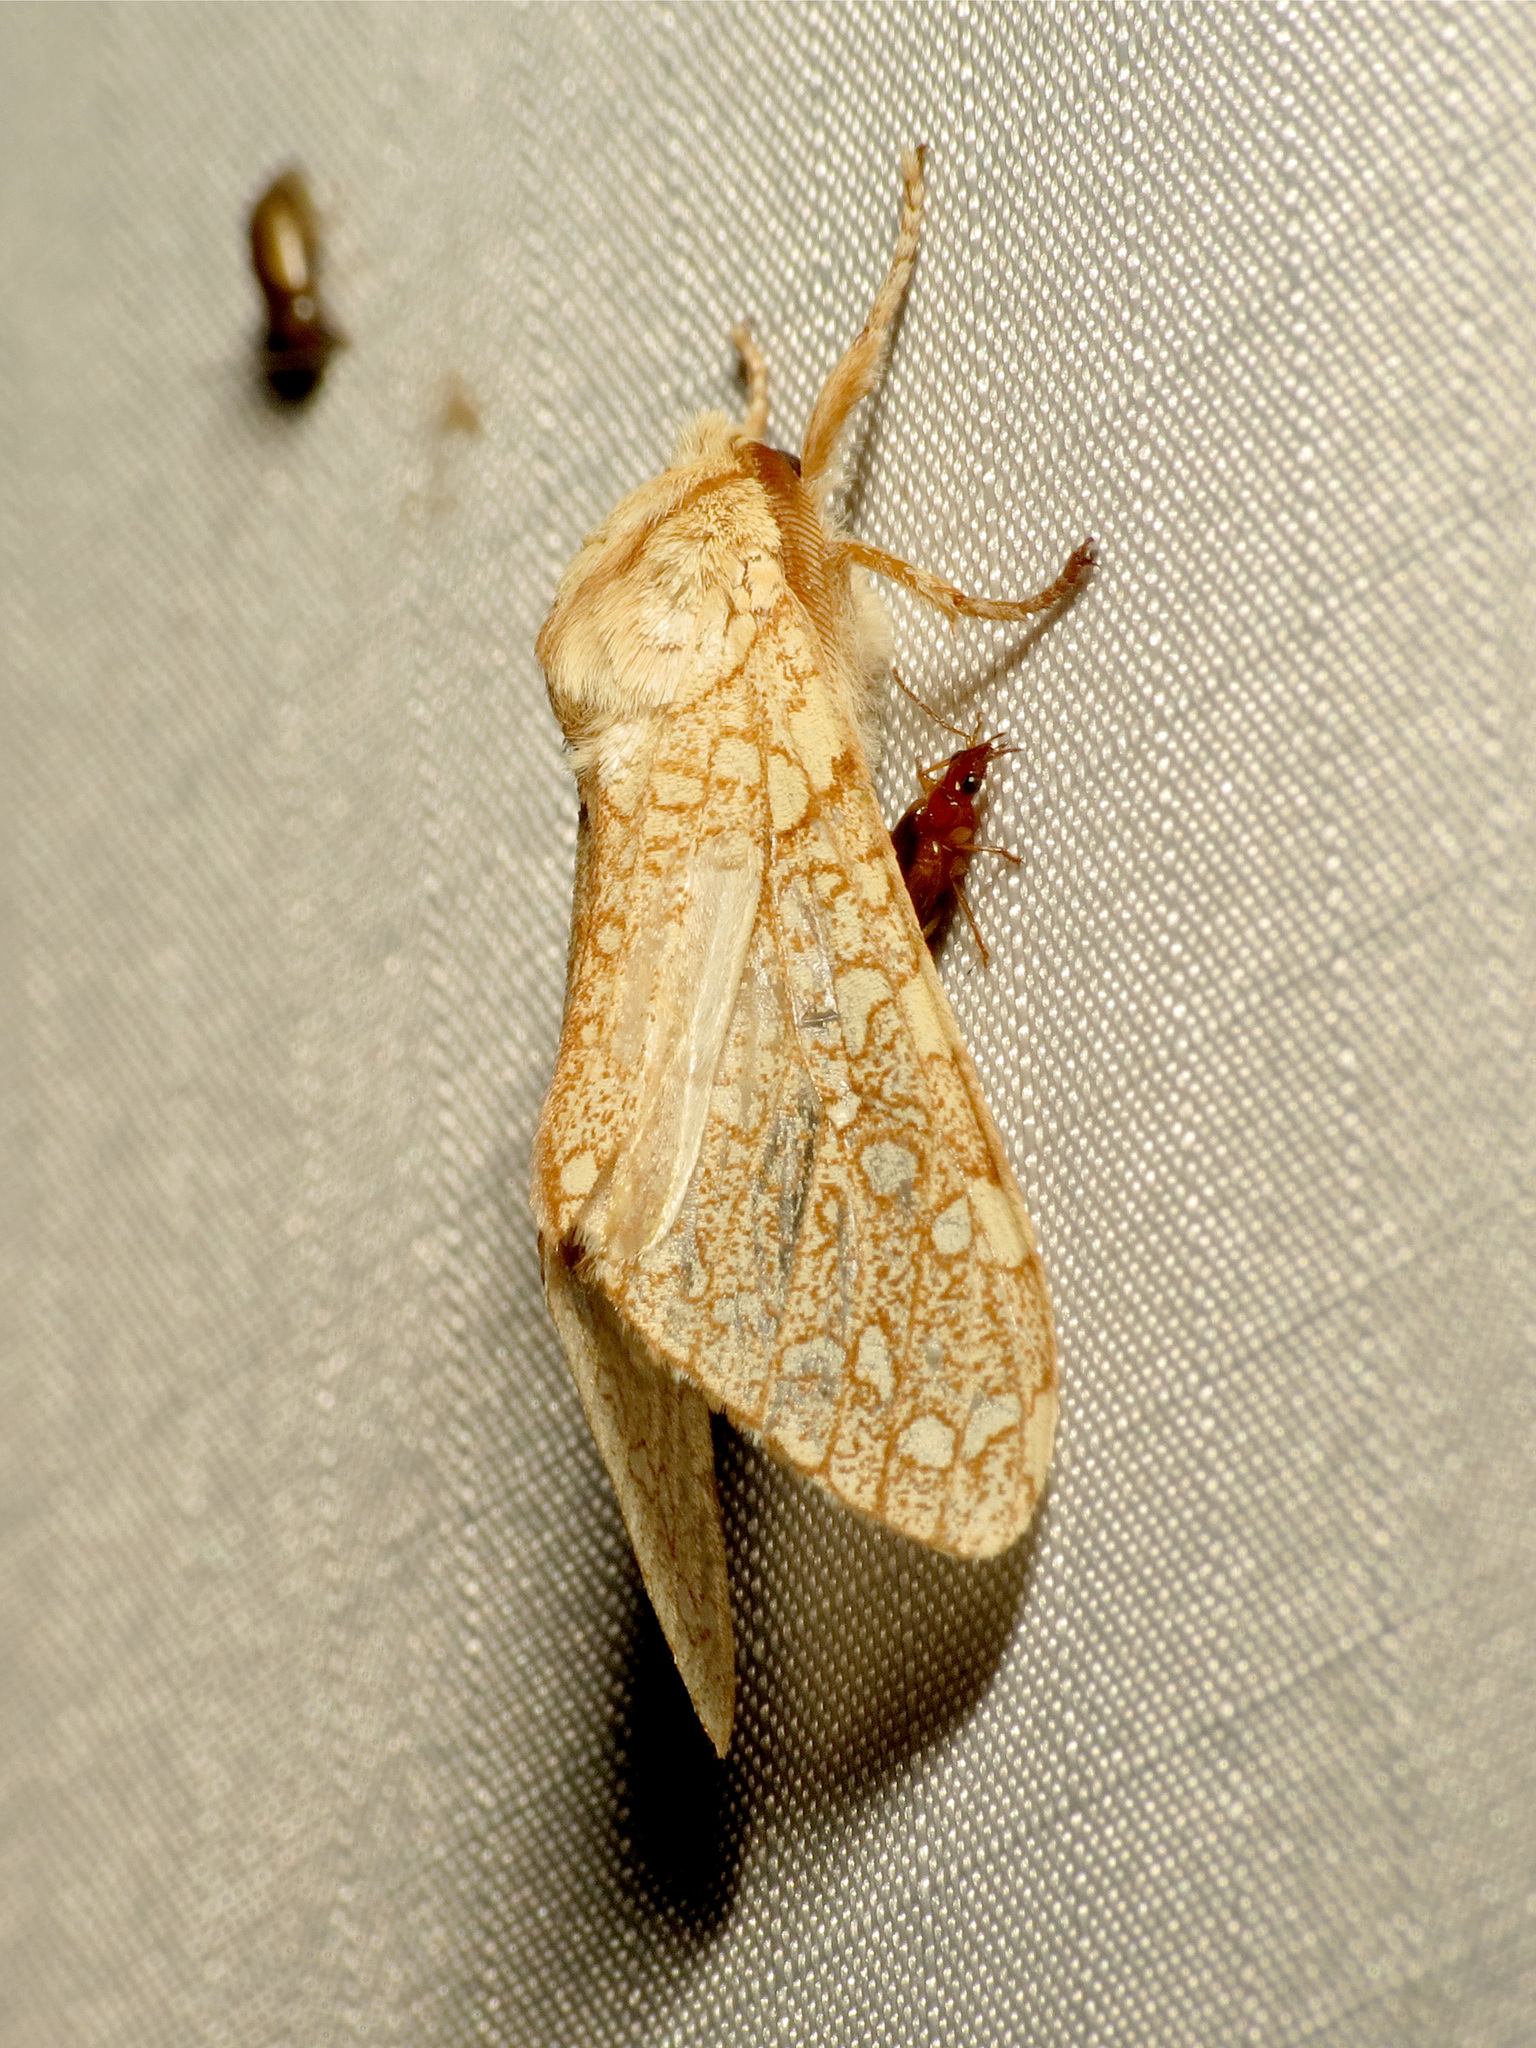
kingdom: Animalia
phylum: Arthropoda
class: Insecta
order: Lepidoptera
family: Erebidae
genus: Lophocampa
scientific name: Lophocampa mixta
